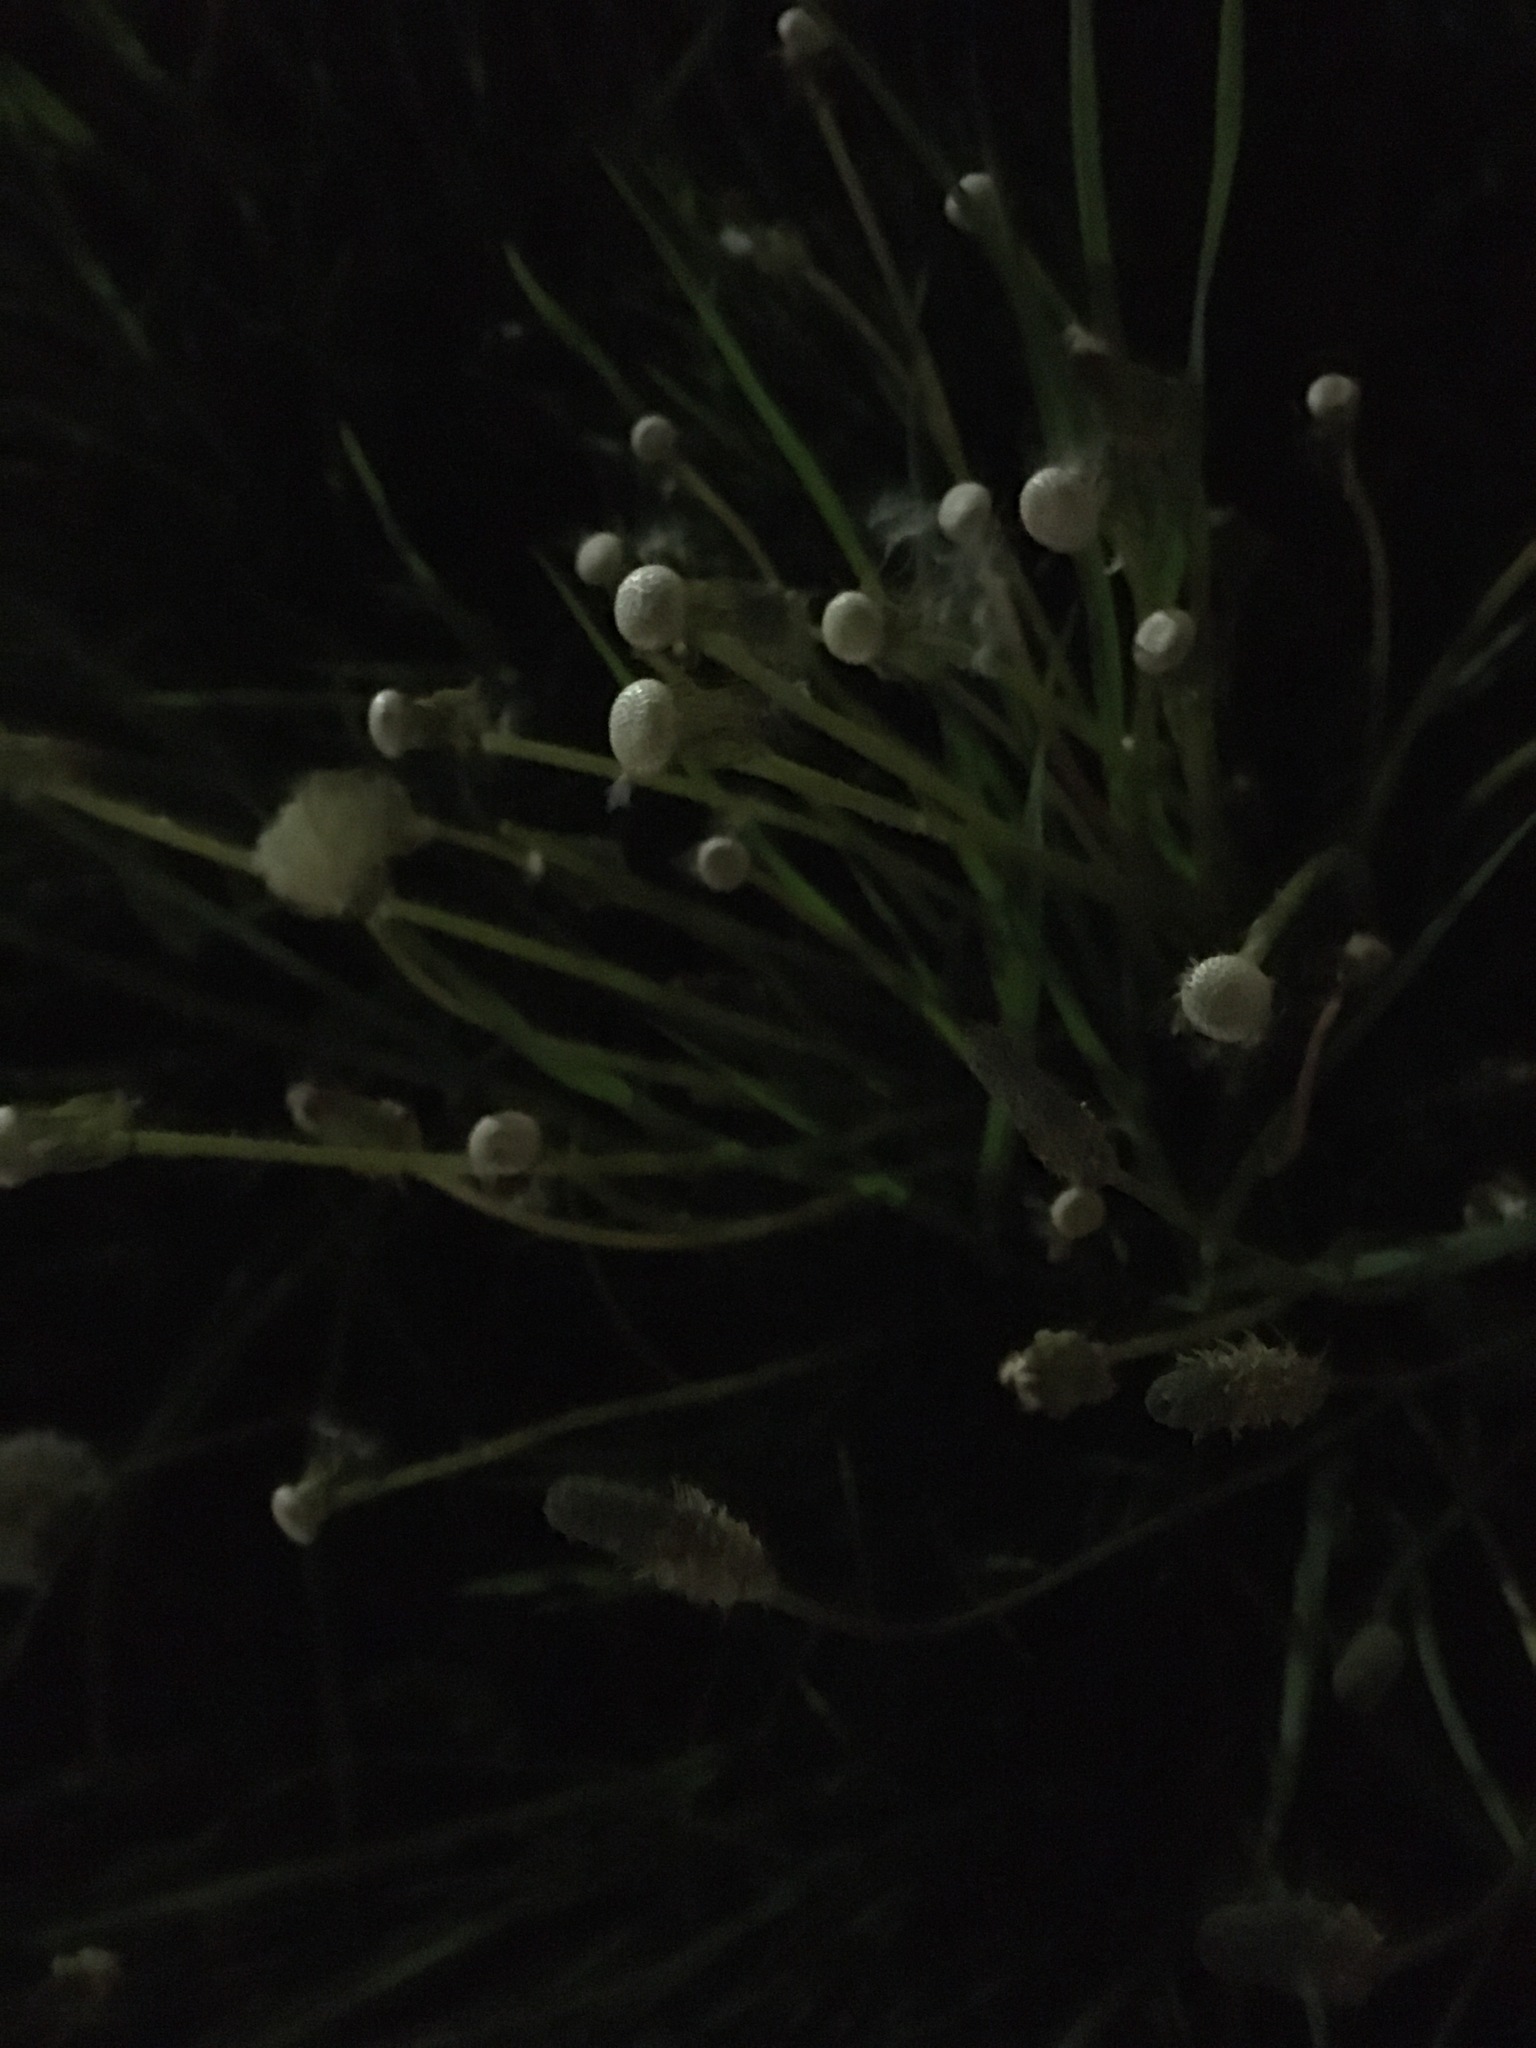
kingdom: Plantae
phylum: Tracheophyta
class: Magnoliopsida
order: Asterales
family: Asteraceae
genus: Taraxacum
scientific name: Taraxacum officinale
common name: Common dandelion
